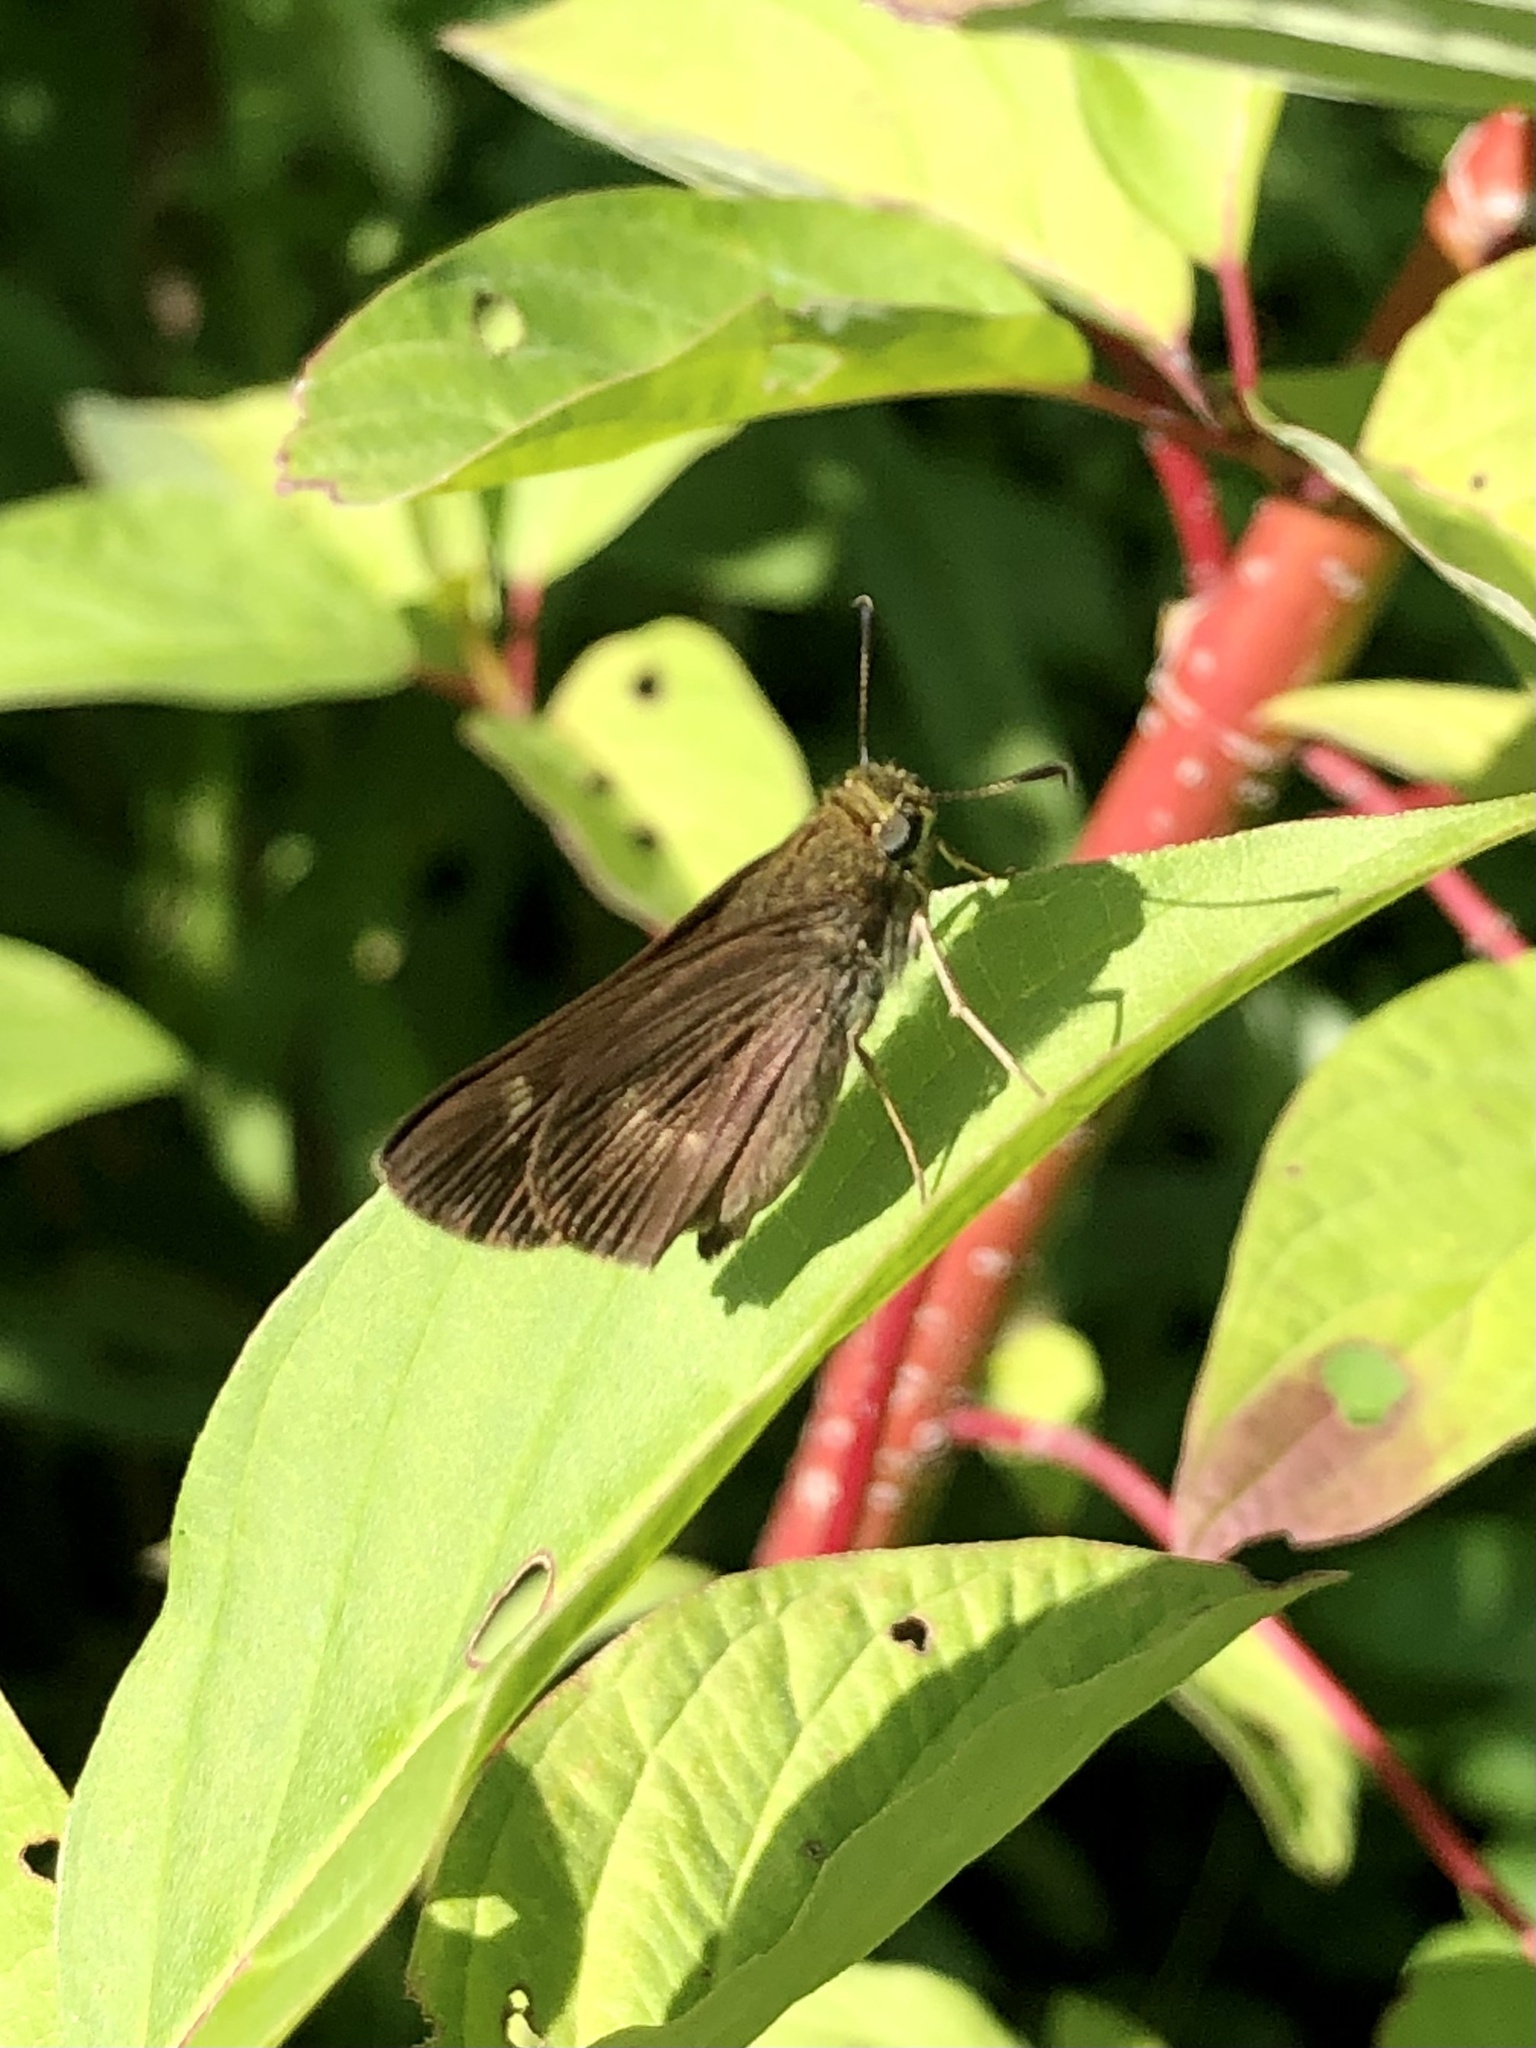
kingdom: Animalia
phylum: Arthropoda
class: Insecta
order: Lepidoptera
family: Hesperiidae
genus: Euphyes
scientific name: Euphyes vestris
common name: Dun skipper
